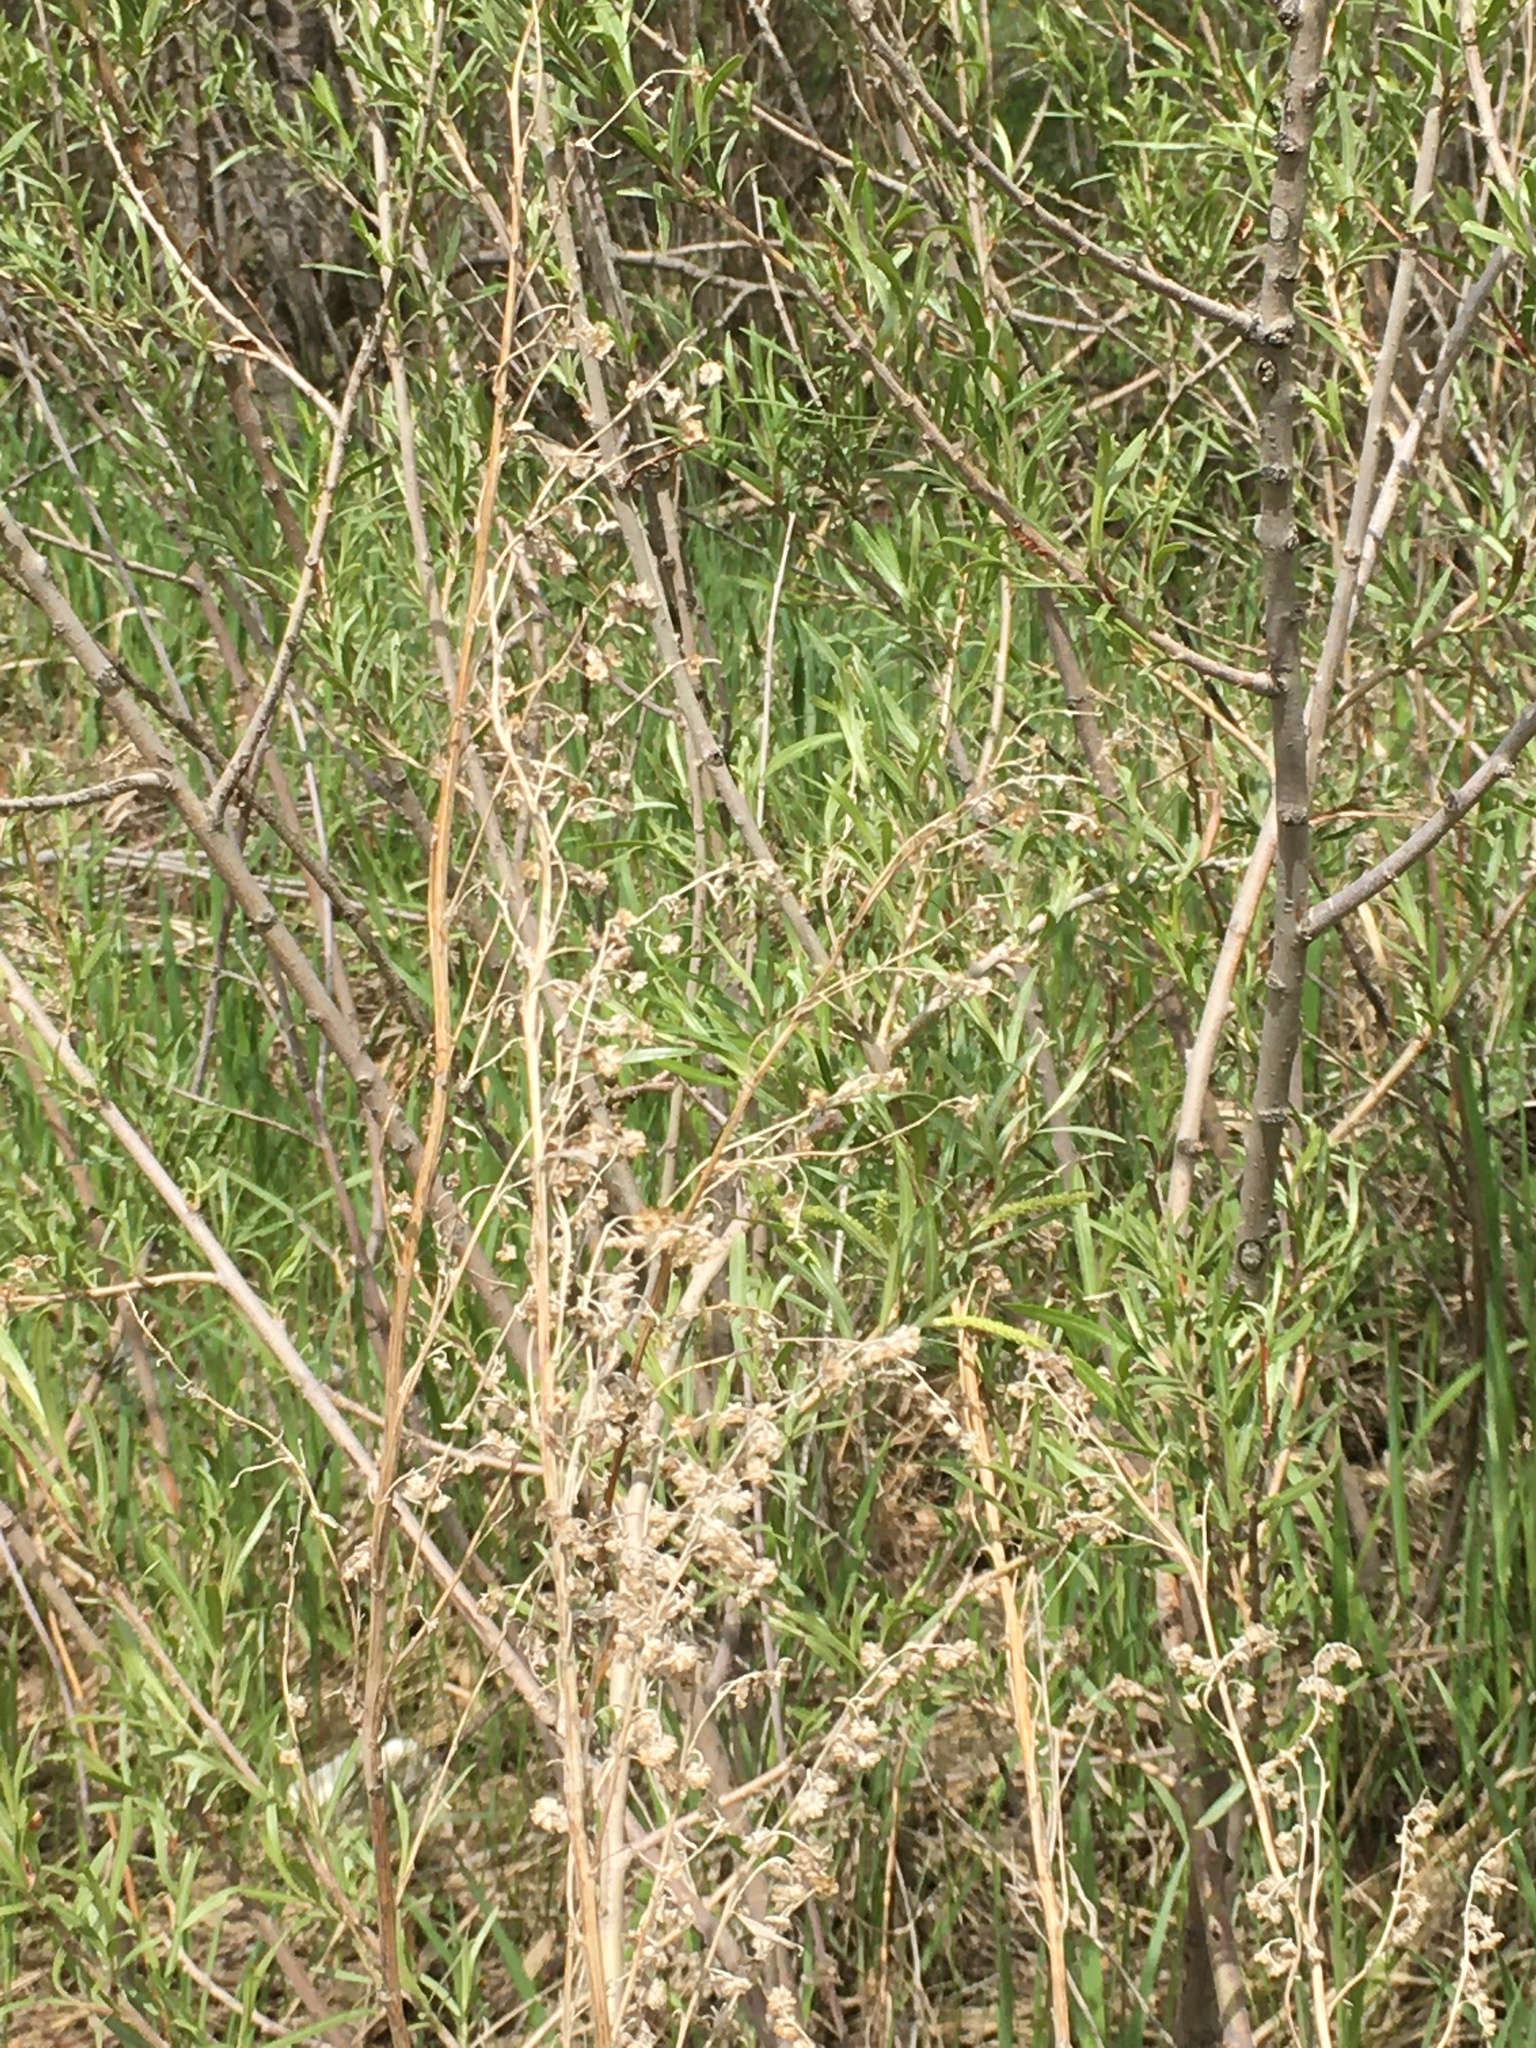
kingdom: Plantae
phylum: Tracheophyta
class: Magnoliopsida
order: Asterales
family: Asteraceae
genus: Artemisia
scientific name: Artemisia absinthium
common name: Wormwood
